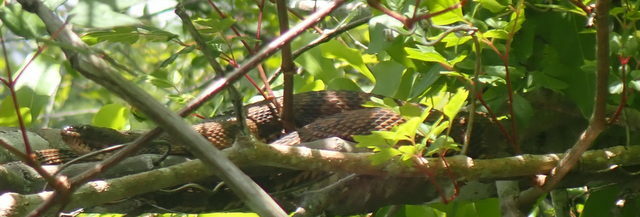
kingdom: Animalia
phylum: Chordata
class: Squamata
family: Colubridae
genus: Nerodia
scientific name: Nerodia taxispilota
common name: Brown water snake
